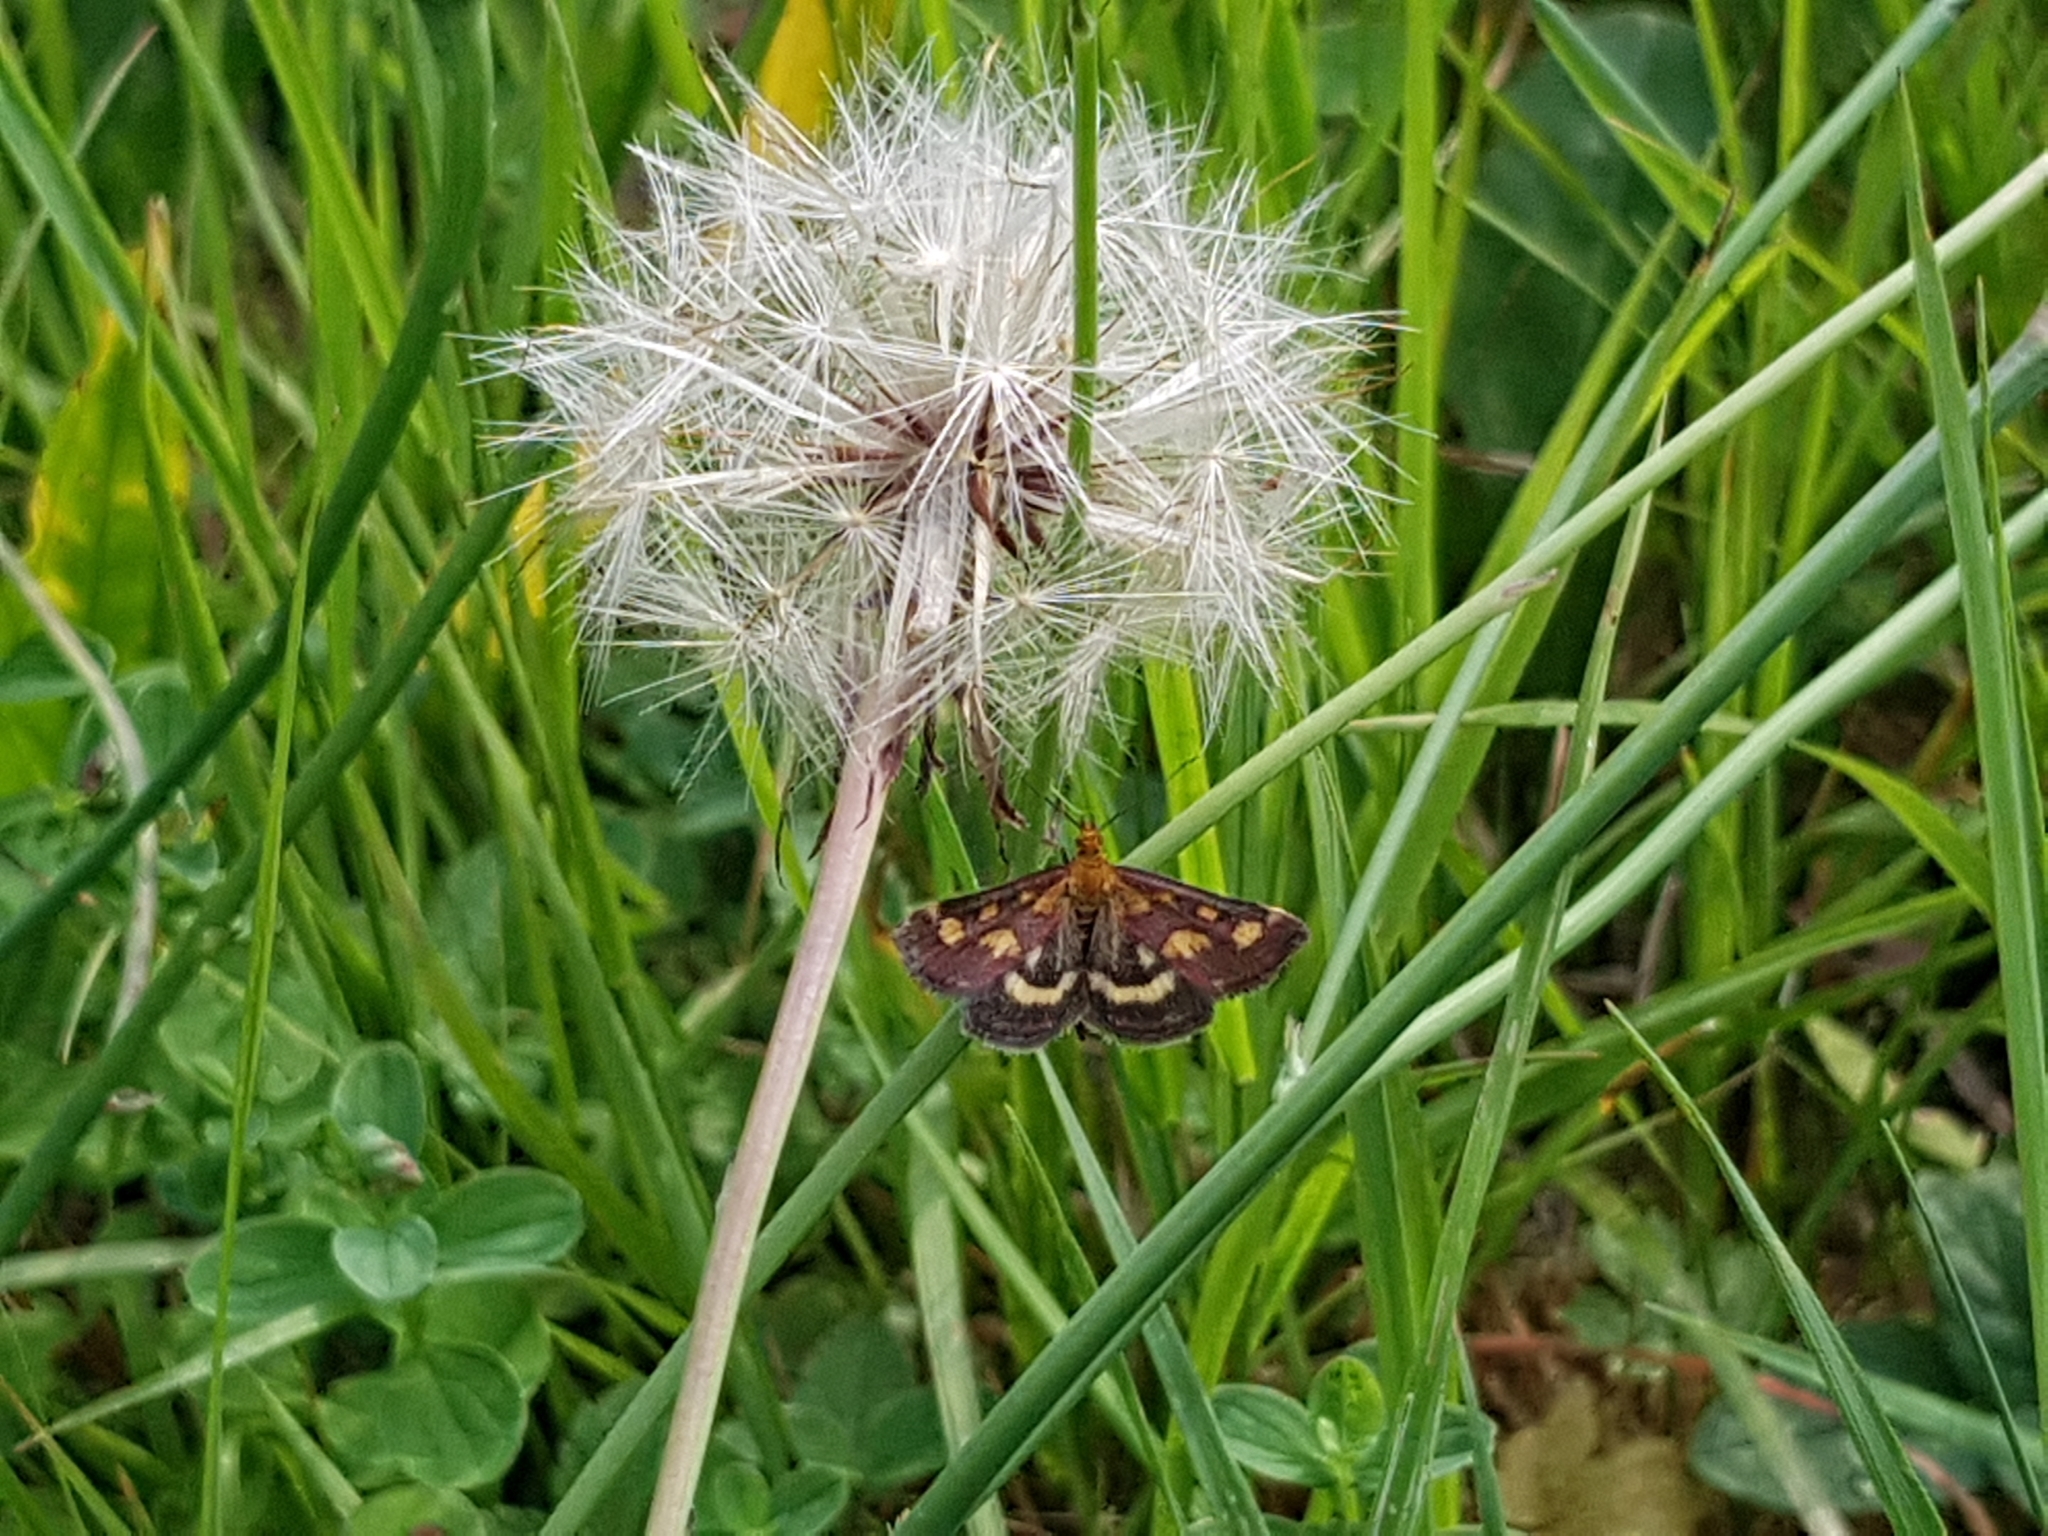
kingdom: Animalia
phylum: Arthropoda
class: Insecta
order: Lepidoptera
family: Crambidae
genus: Pyrausta
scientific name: Pyrausta purpuralis
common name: Common purple & gold
